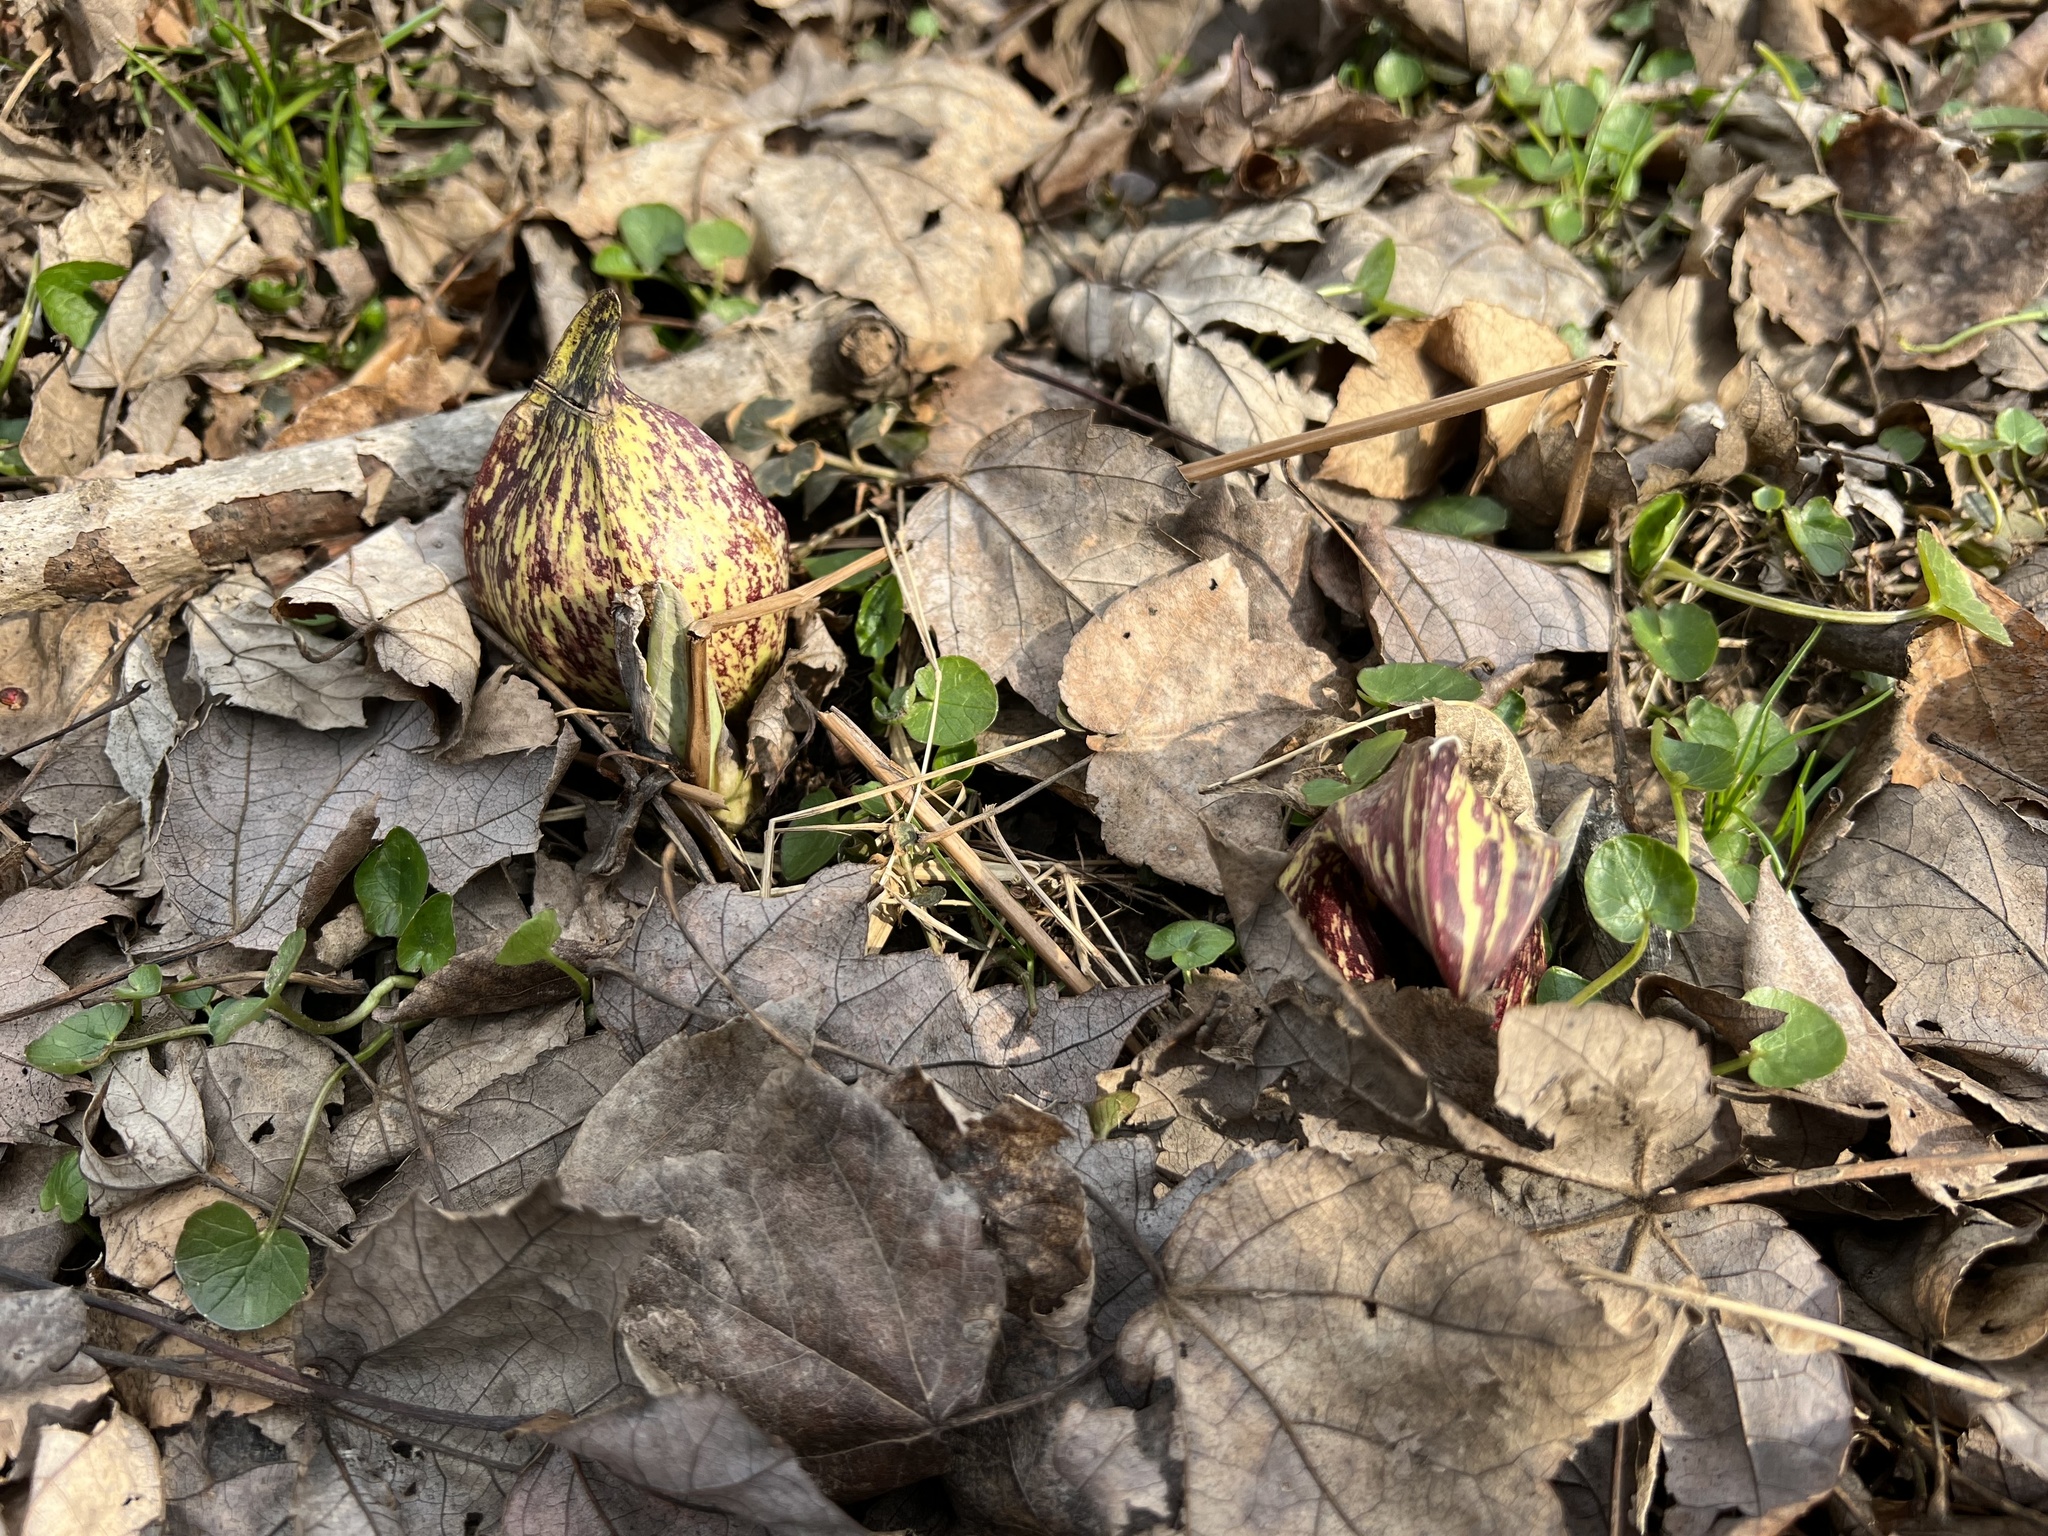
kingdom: Plantae
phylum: Tracheophyta
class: Liliopsida
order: Alismatales
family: Araceae
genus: Symplocarpus
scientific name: Symplocarpus foetidus
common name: Eastern skunk cabbage
